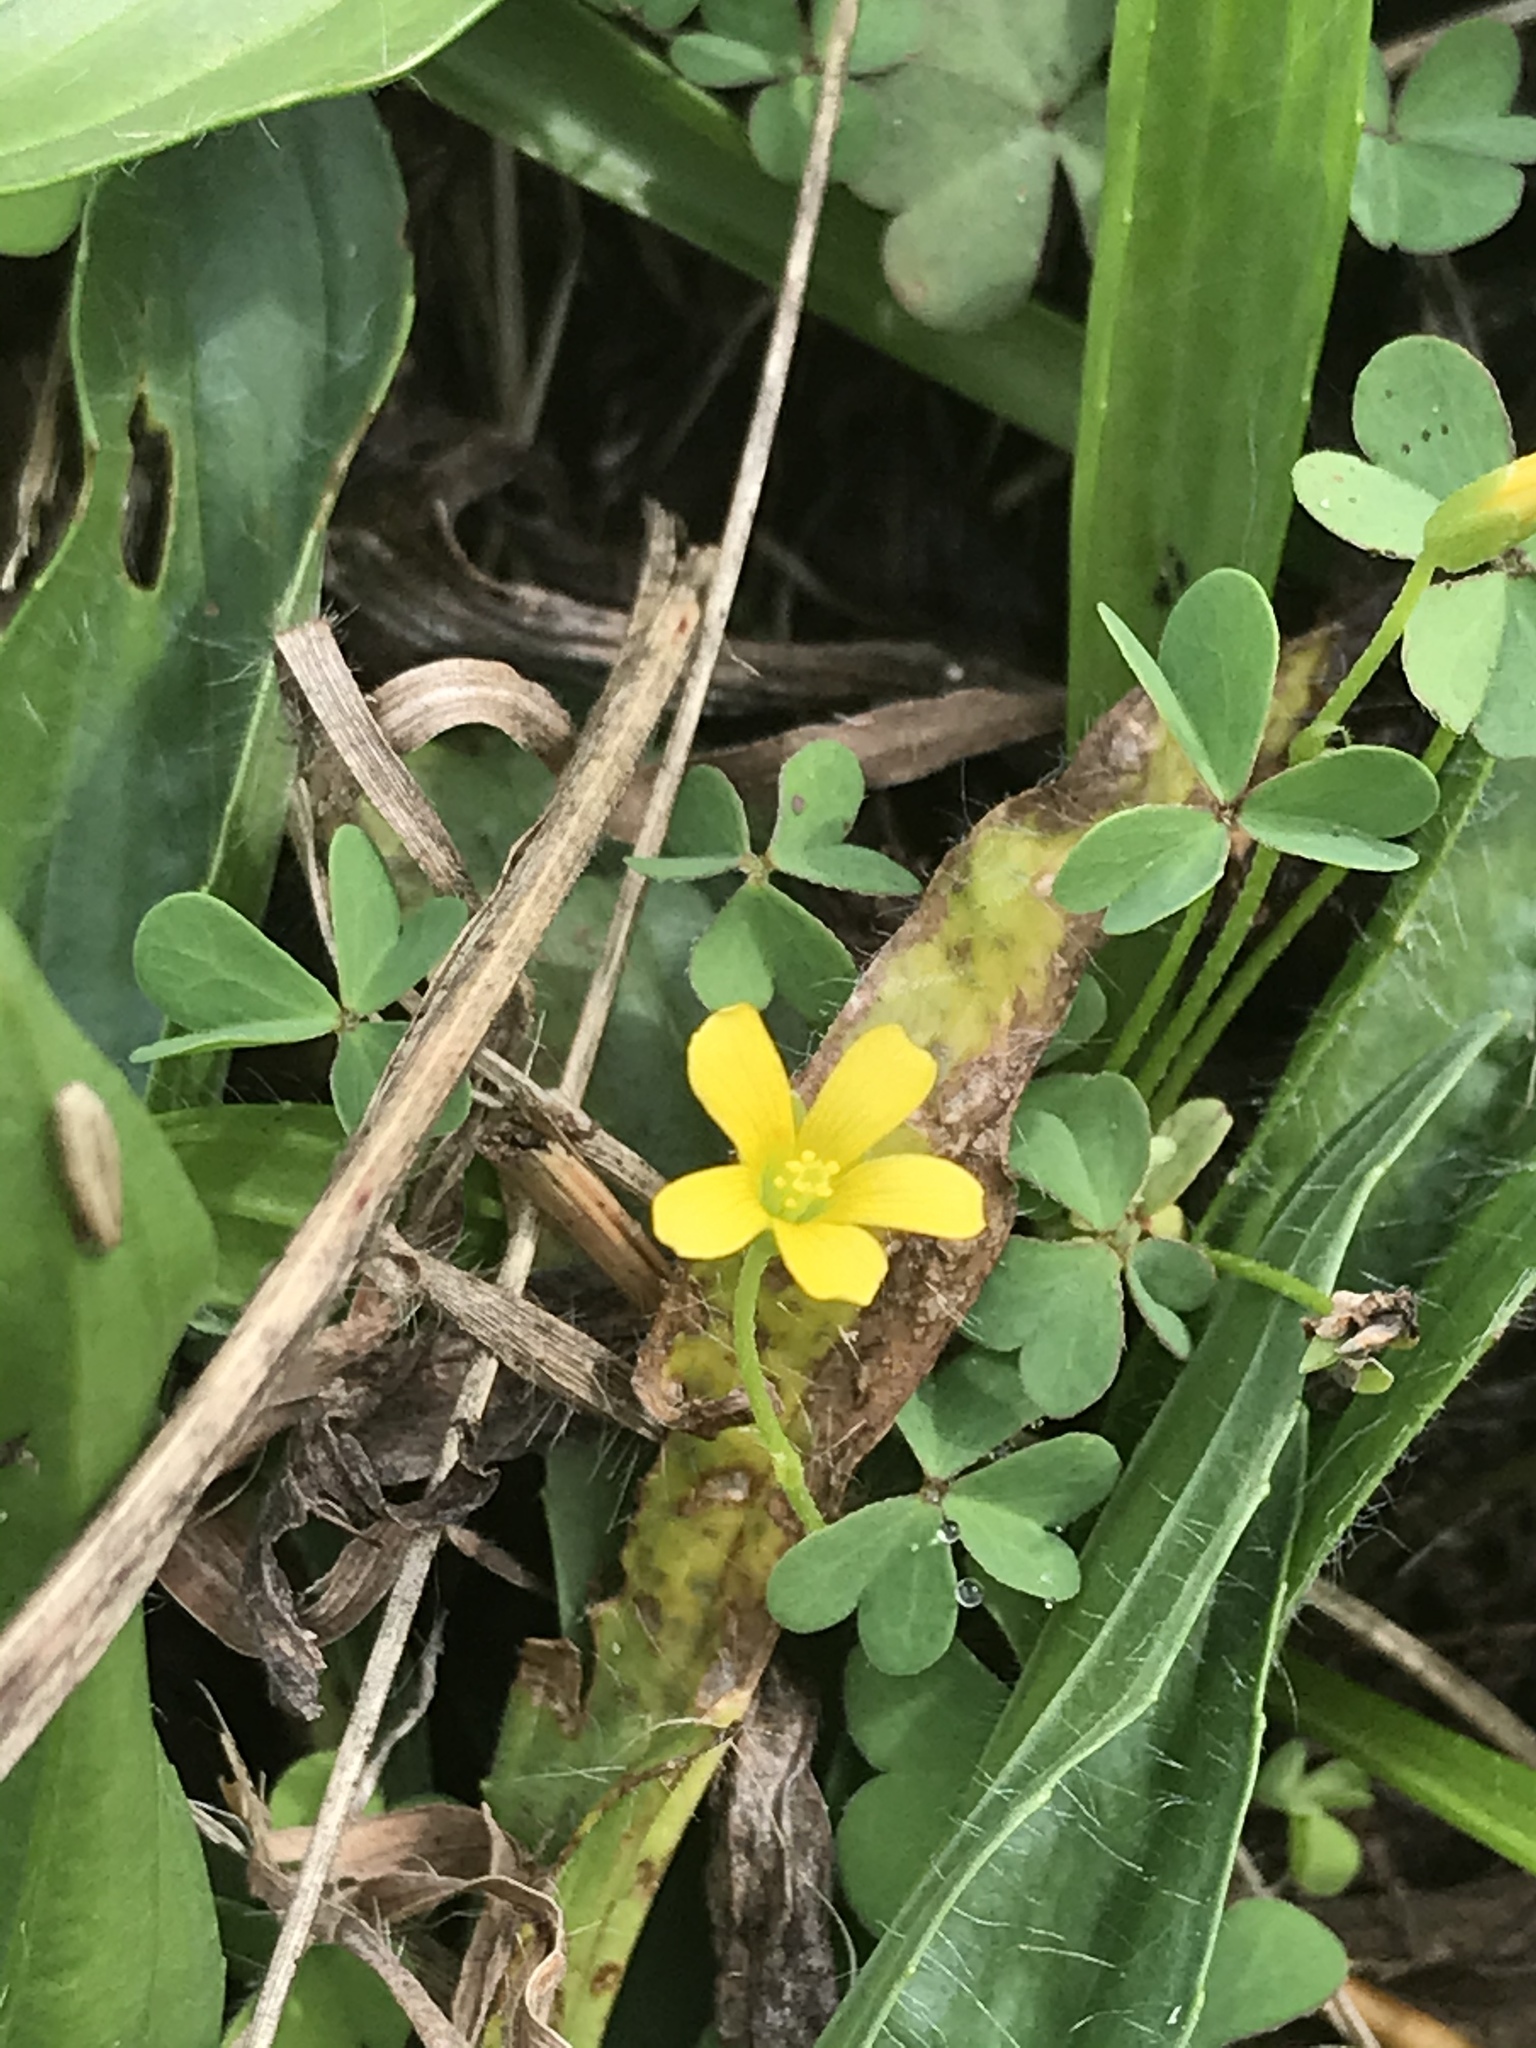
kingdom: Plantae
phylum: Tracheophyta
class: Magnoliopsida
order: Oxalidales
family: Oxalidaceae
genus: Oxalis
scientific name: Oxalis corniculata
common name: Procumbent yellow-sorrel
